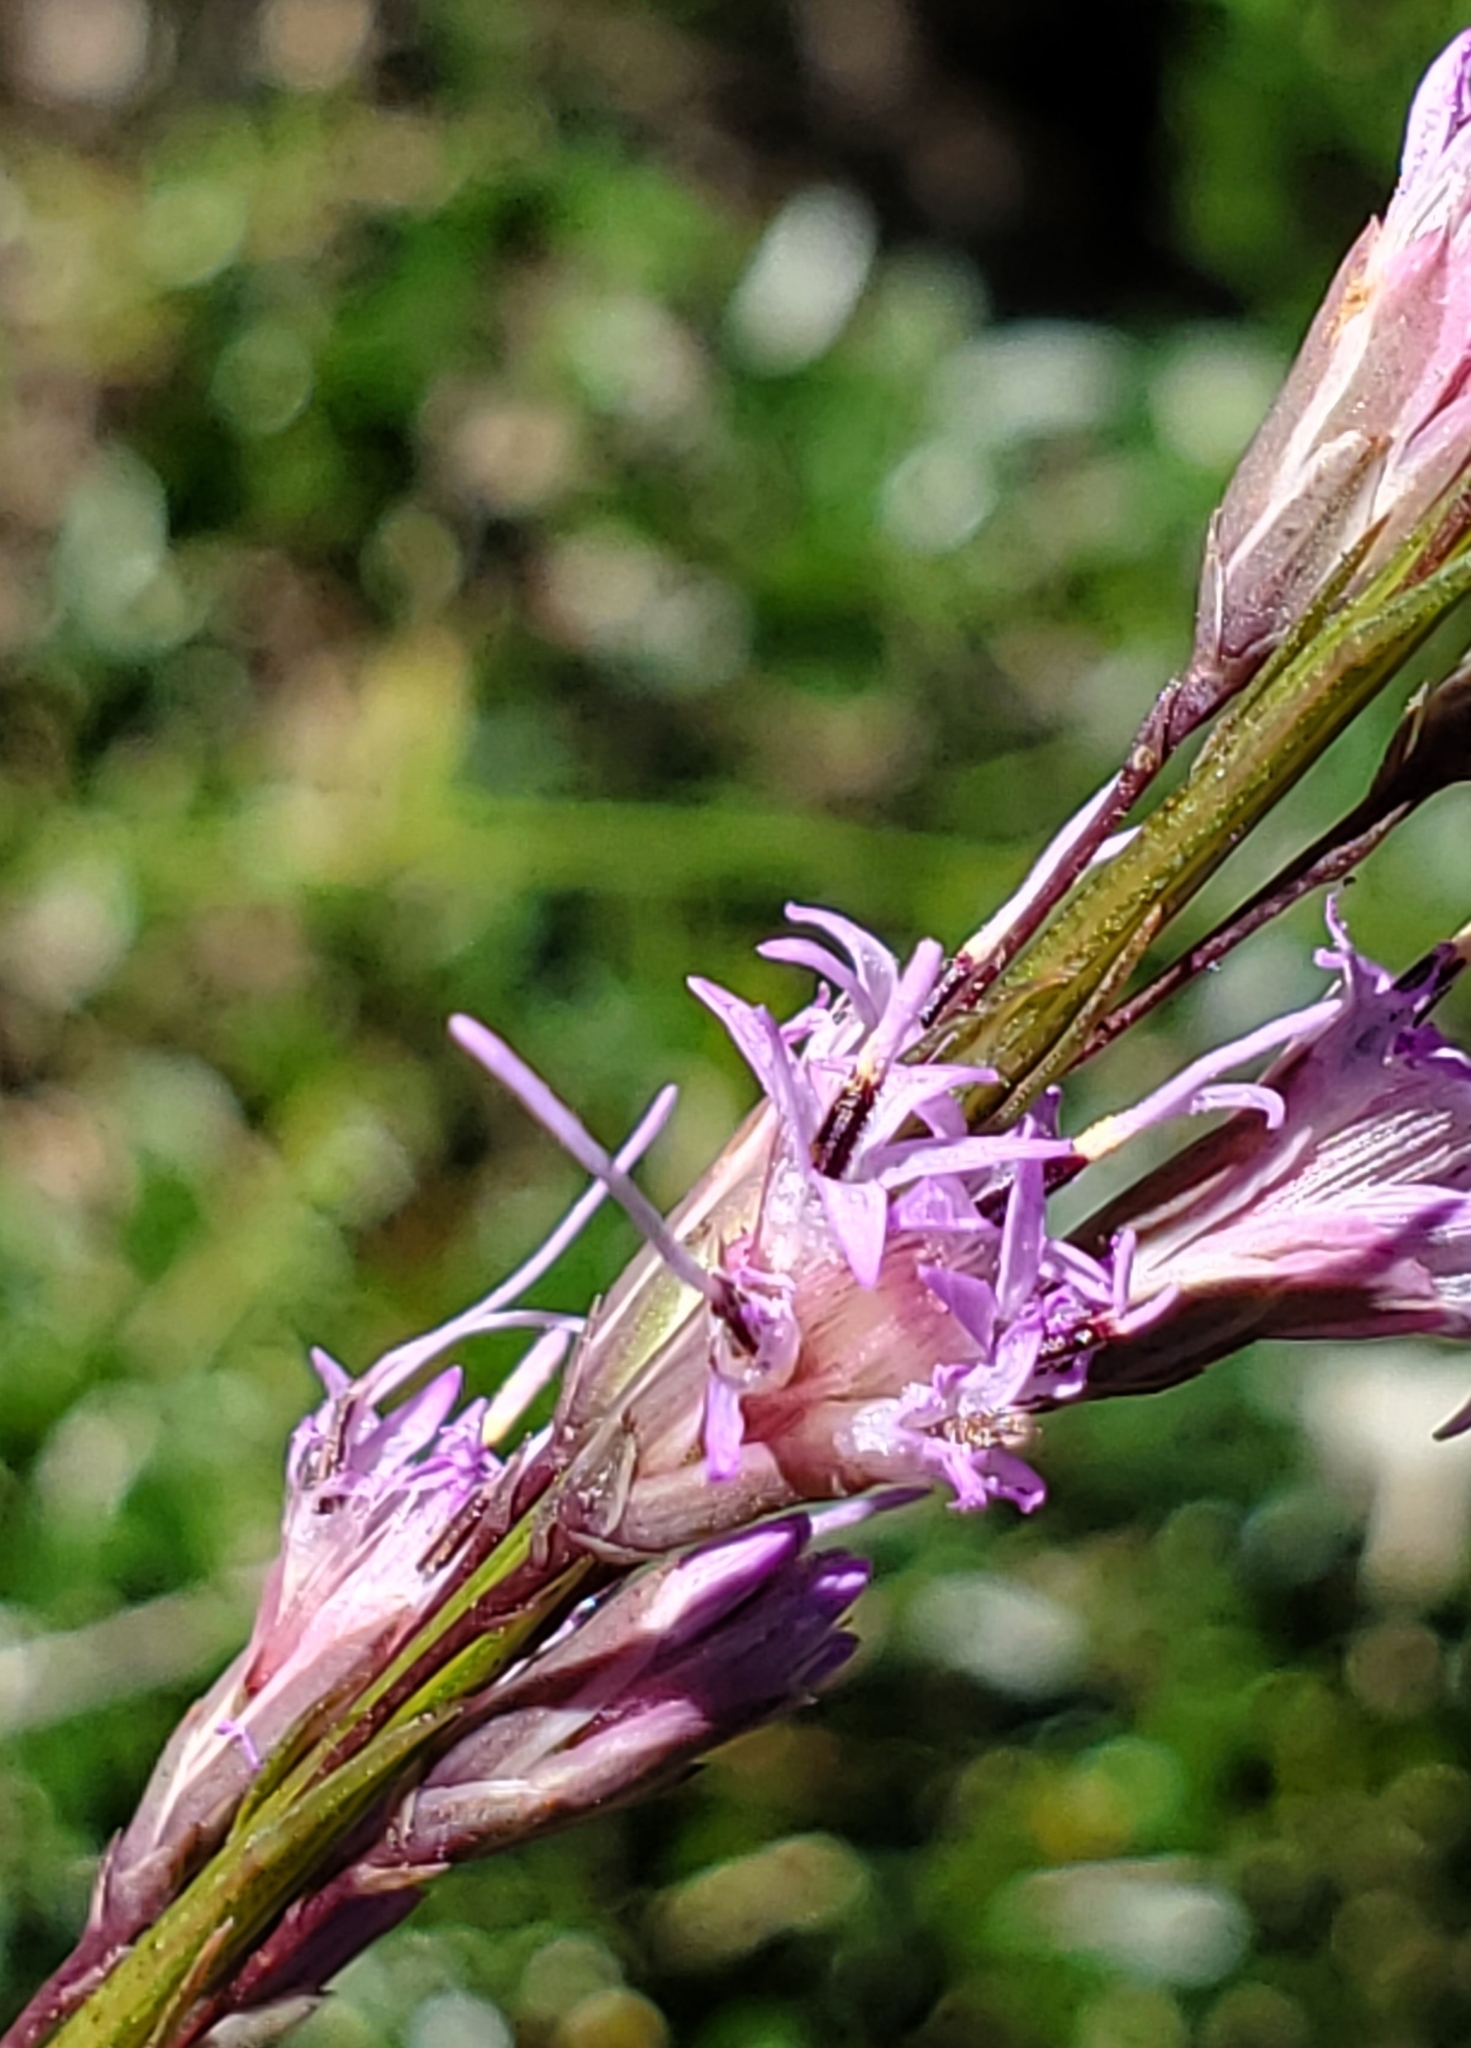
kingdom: Plantae
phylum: Tracheophyta
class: Magnoliopsida
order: Asterales
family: Asteraceae
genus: Liatris
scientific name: Liatris tenuifolia
